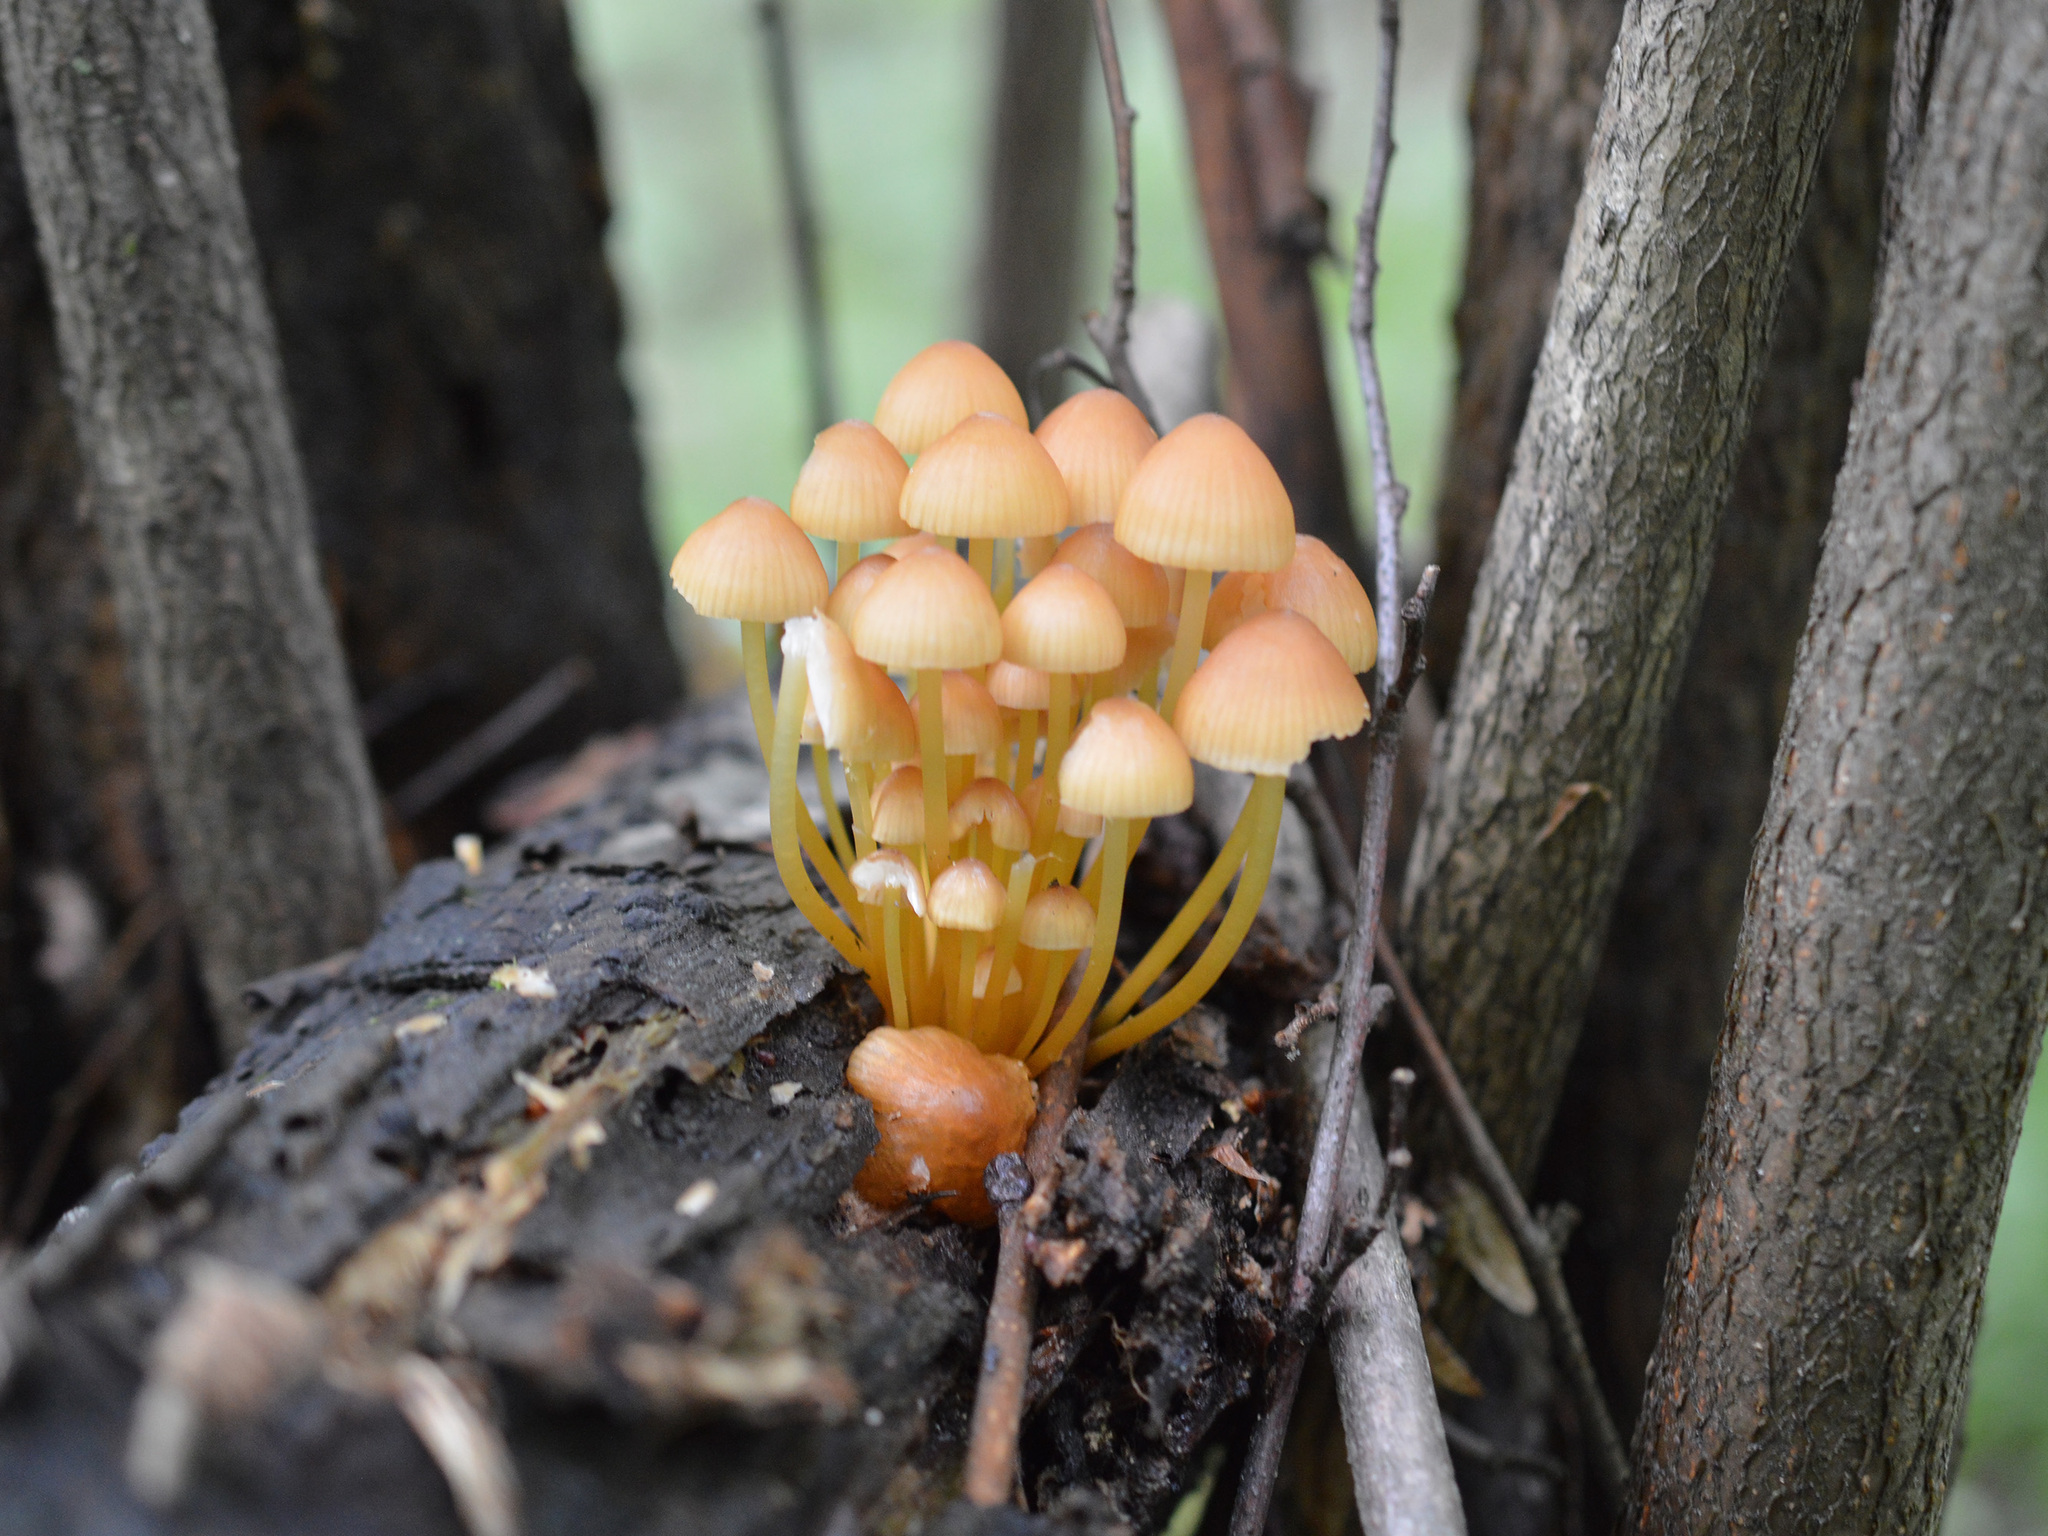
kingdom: Fungi
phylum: Basidiomycota
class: Agaricomycetes
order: Agaricales
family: Mycenaceae
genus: Mycena
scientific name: Mycena renati
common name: Beautiful bonnet
